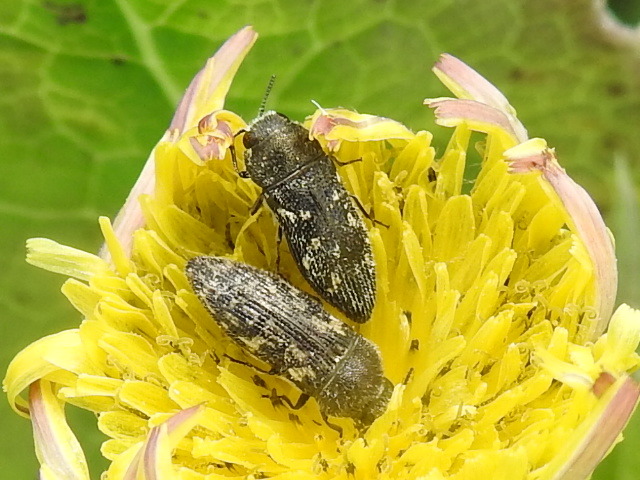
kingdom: Animalia
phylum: Arthropoda
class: Insecta
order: Coleoptera
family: Buprestidae
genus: Acmaeodera
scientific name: Acmaeodera neglecta
